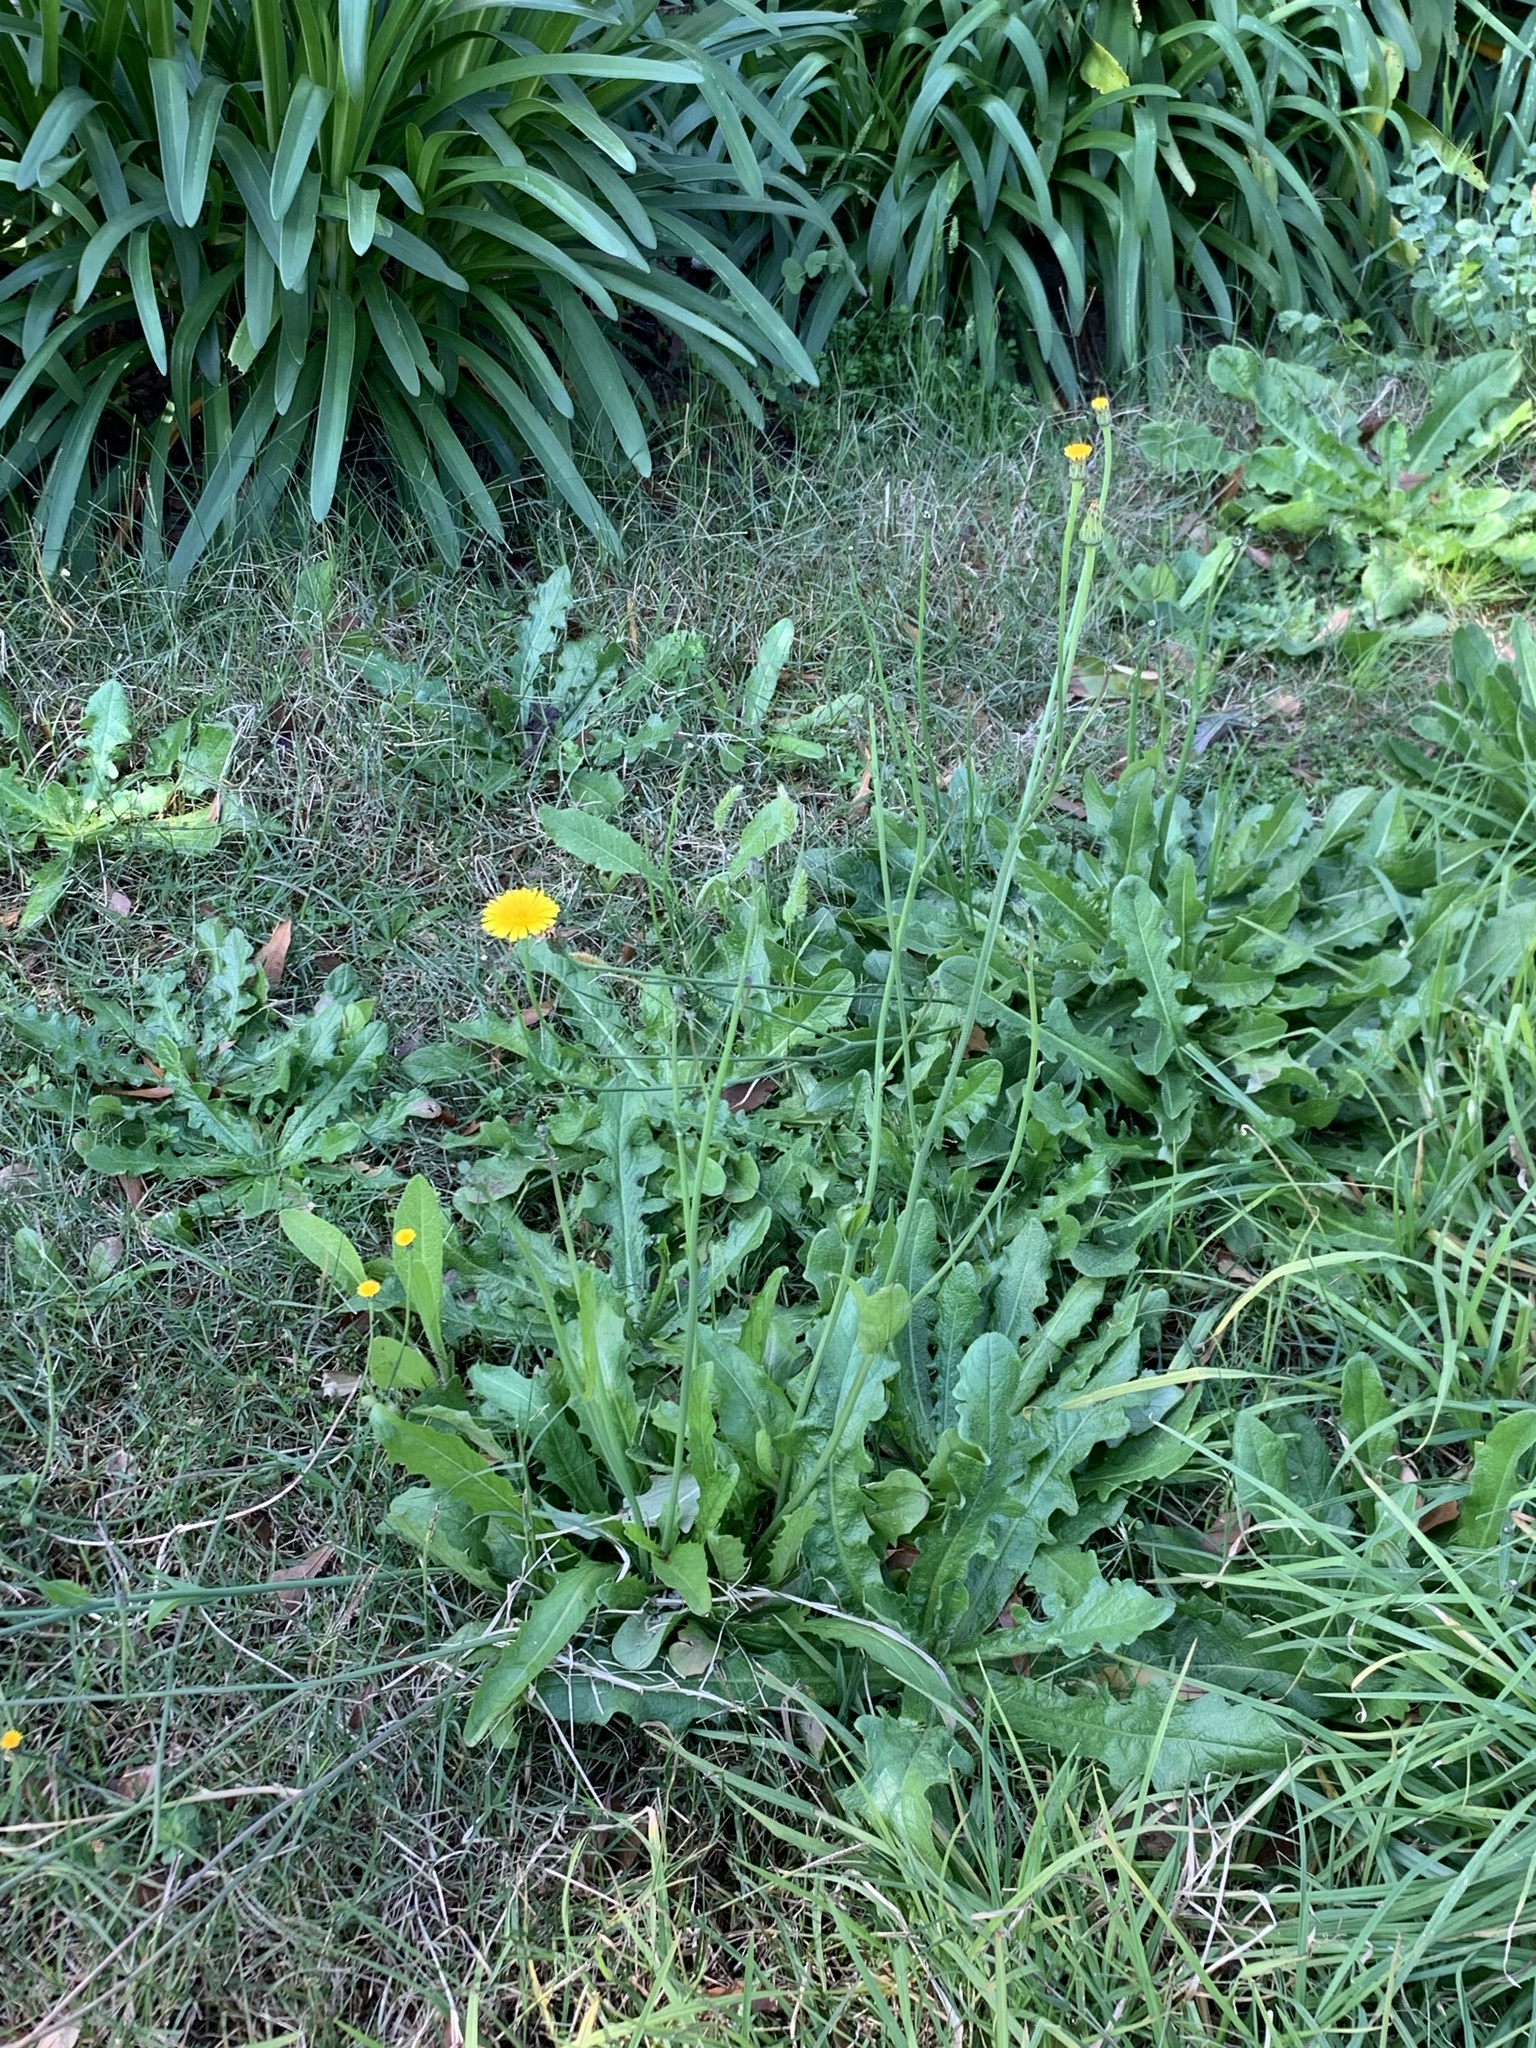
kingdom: Plantae
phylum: Tracheophyta
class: Magnoliopsida
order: Asterales
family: Asteraceae
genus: Hypochaeris
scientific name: Hypochaeris radicata
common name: Flatweed
